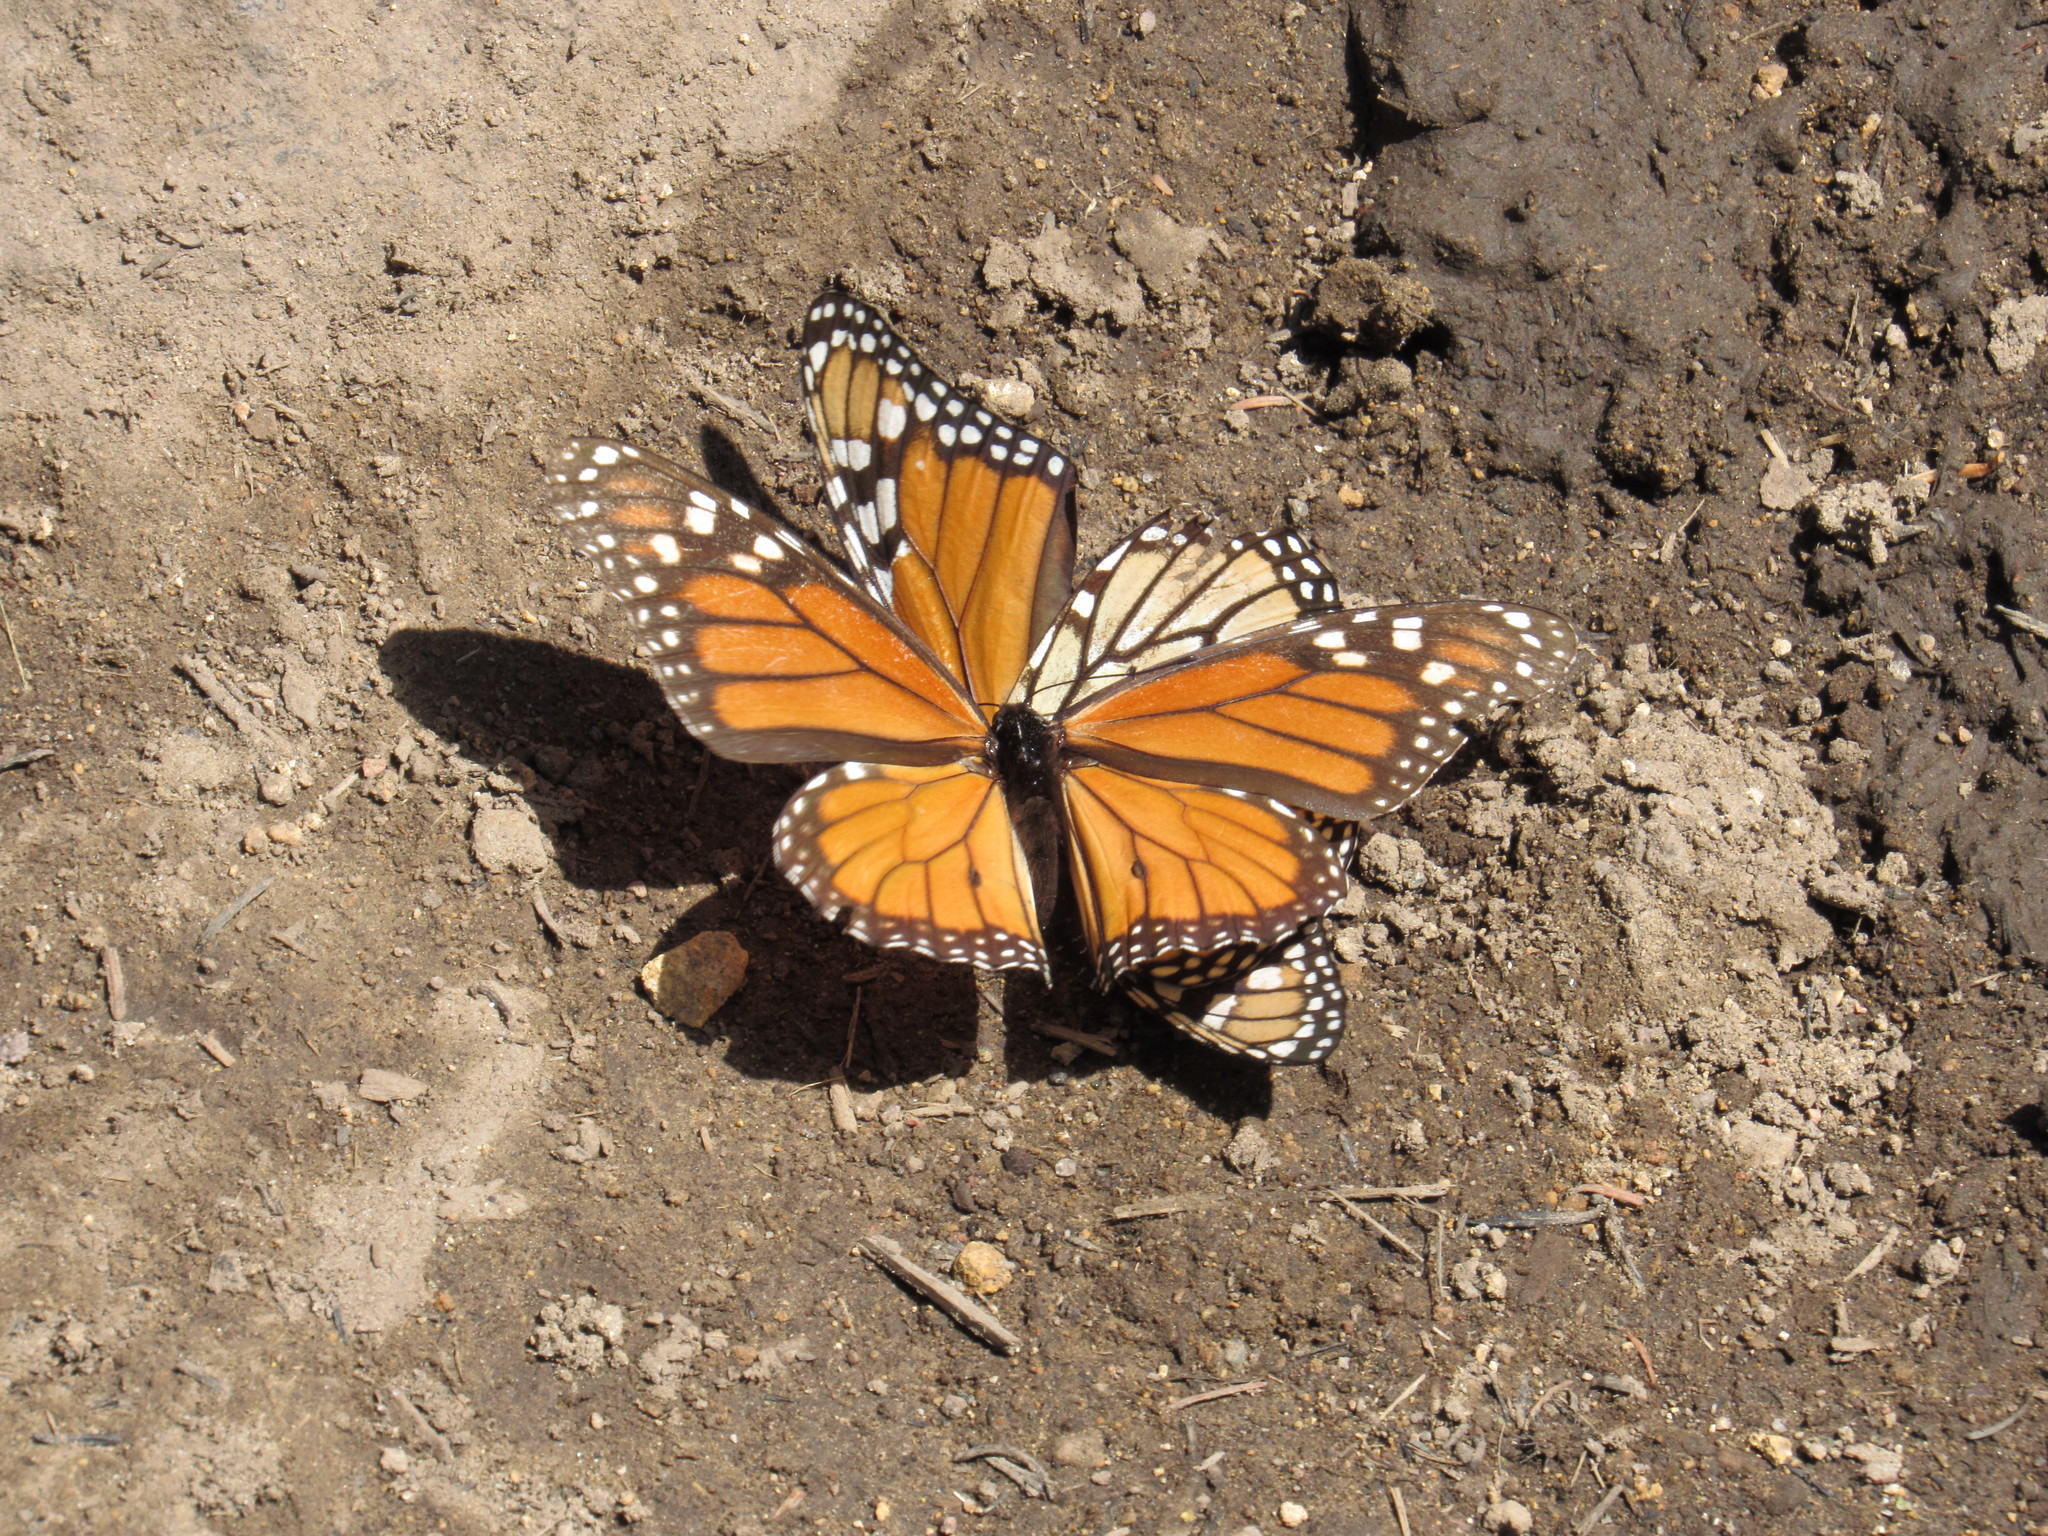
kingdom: Animalia
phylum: Arthropoda
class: Insecta
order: Lepidoptera
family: Nymphalidae
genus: Danaus
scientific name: Danaus plexippus
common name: Monarch
